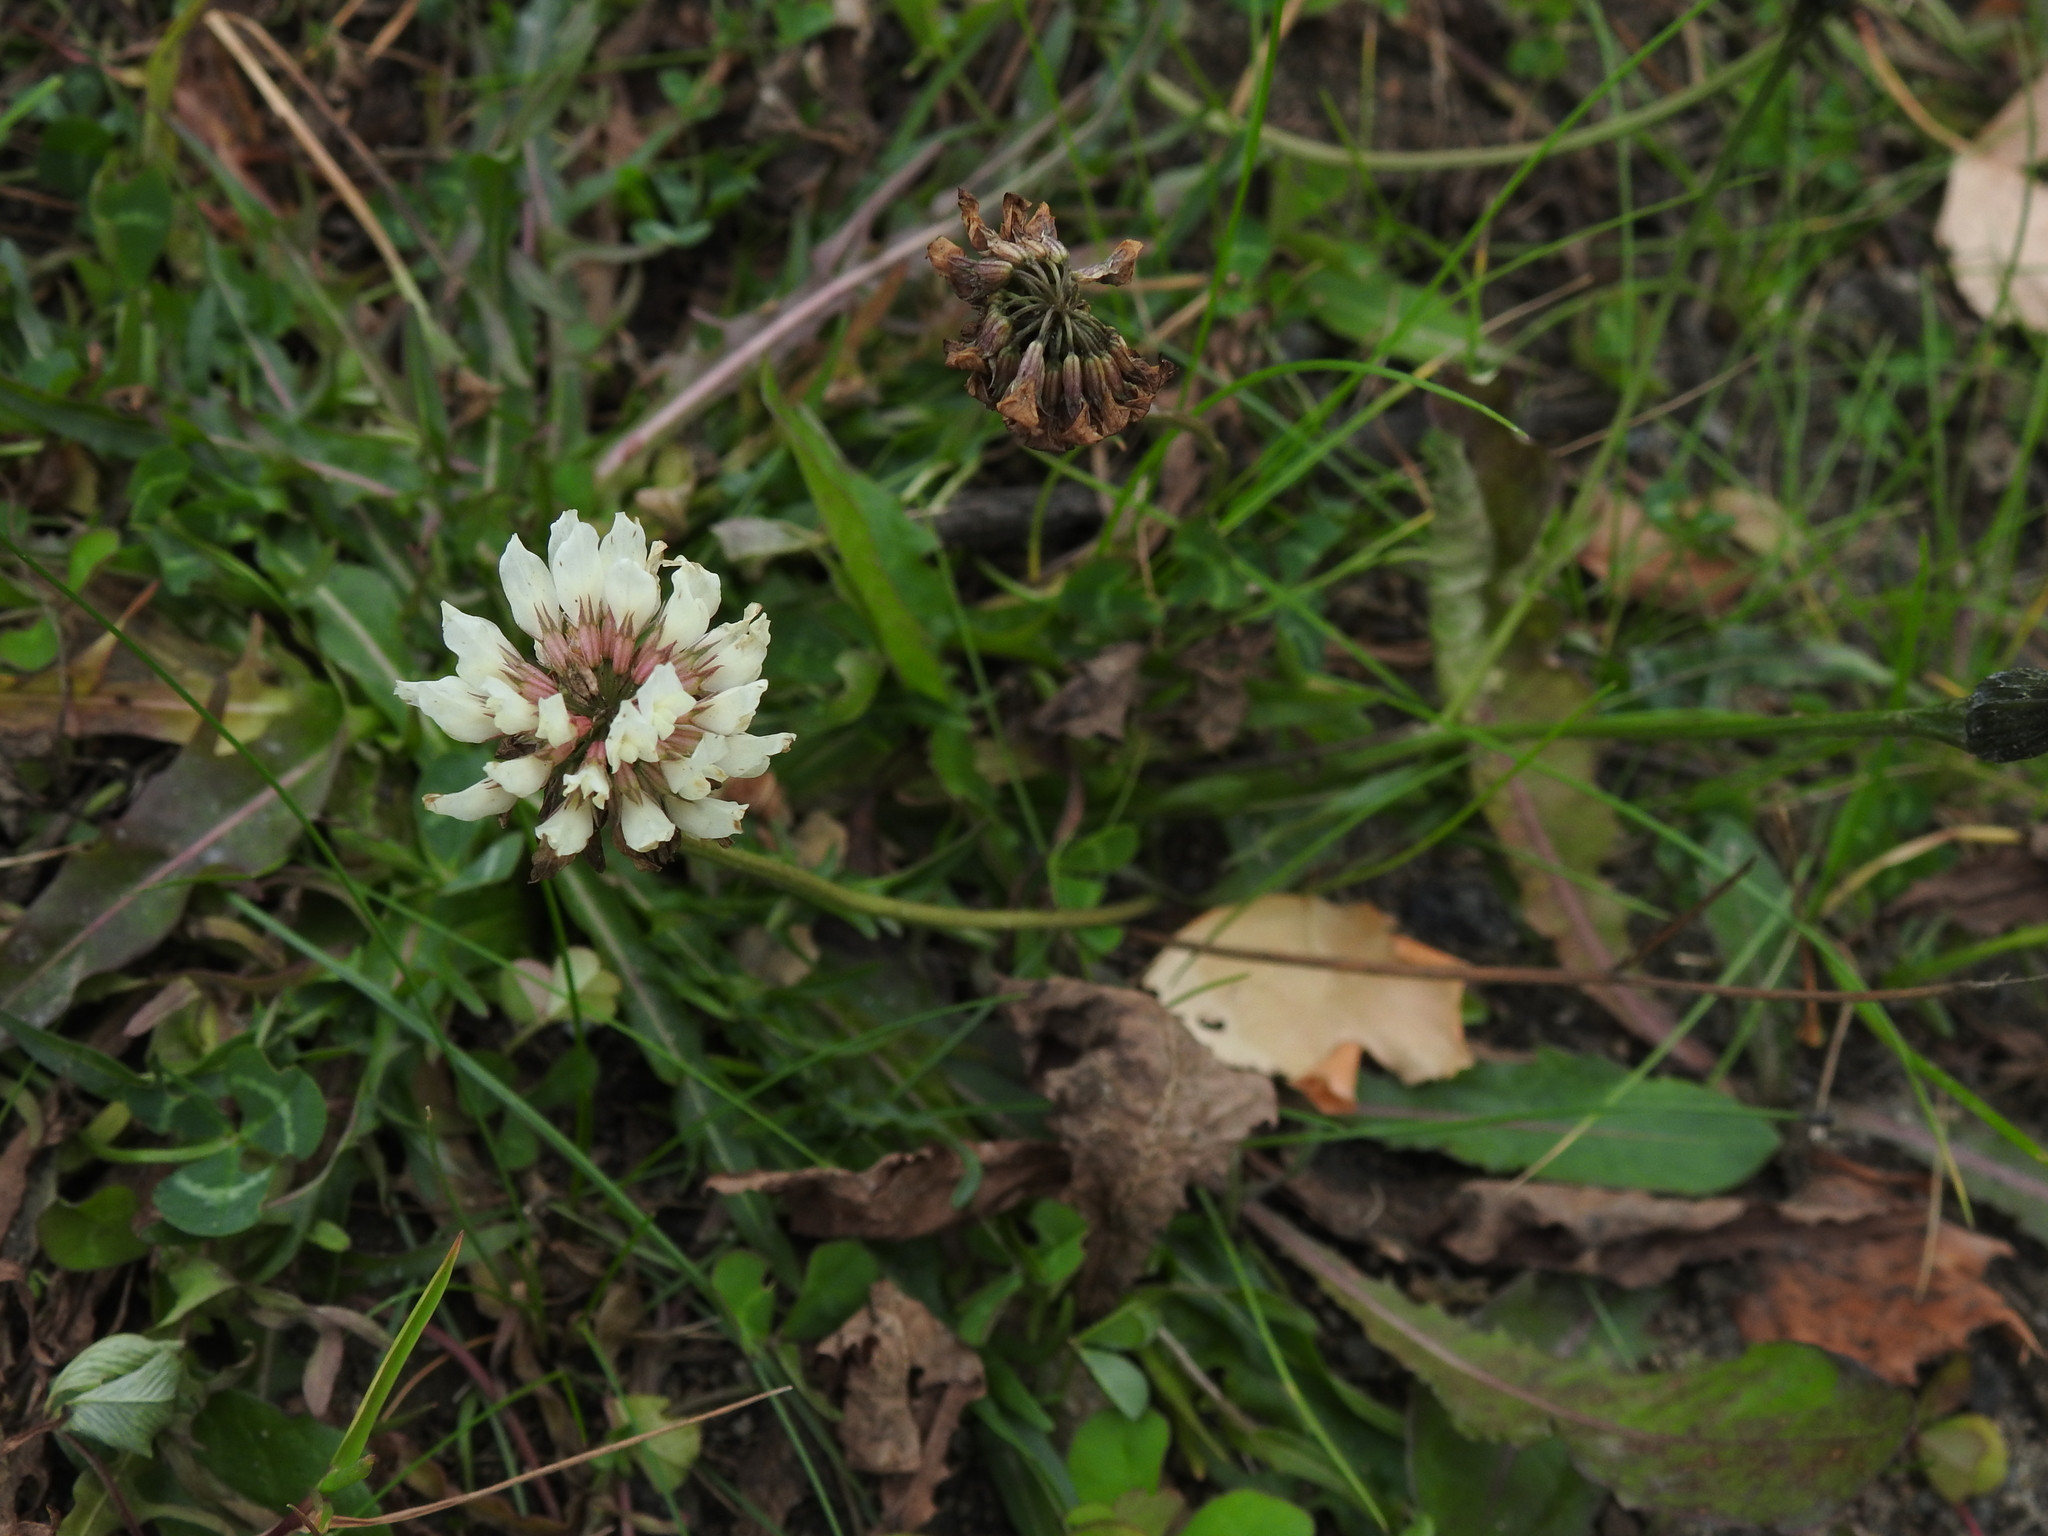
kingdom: Plantae
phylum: Tracheophyta
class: Magnoliopsida
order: Fabales
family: Fabaceae
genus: Trifolium
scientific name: Trifolium repens
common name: White clover
